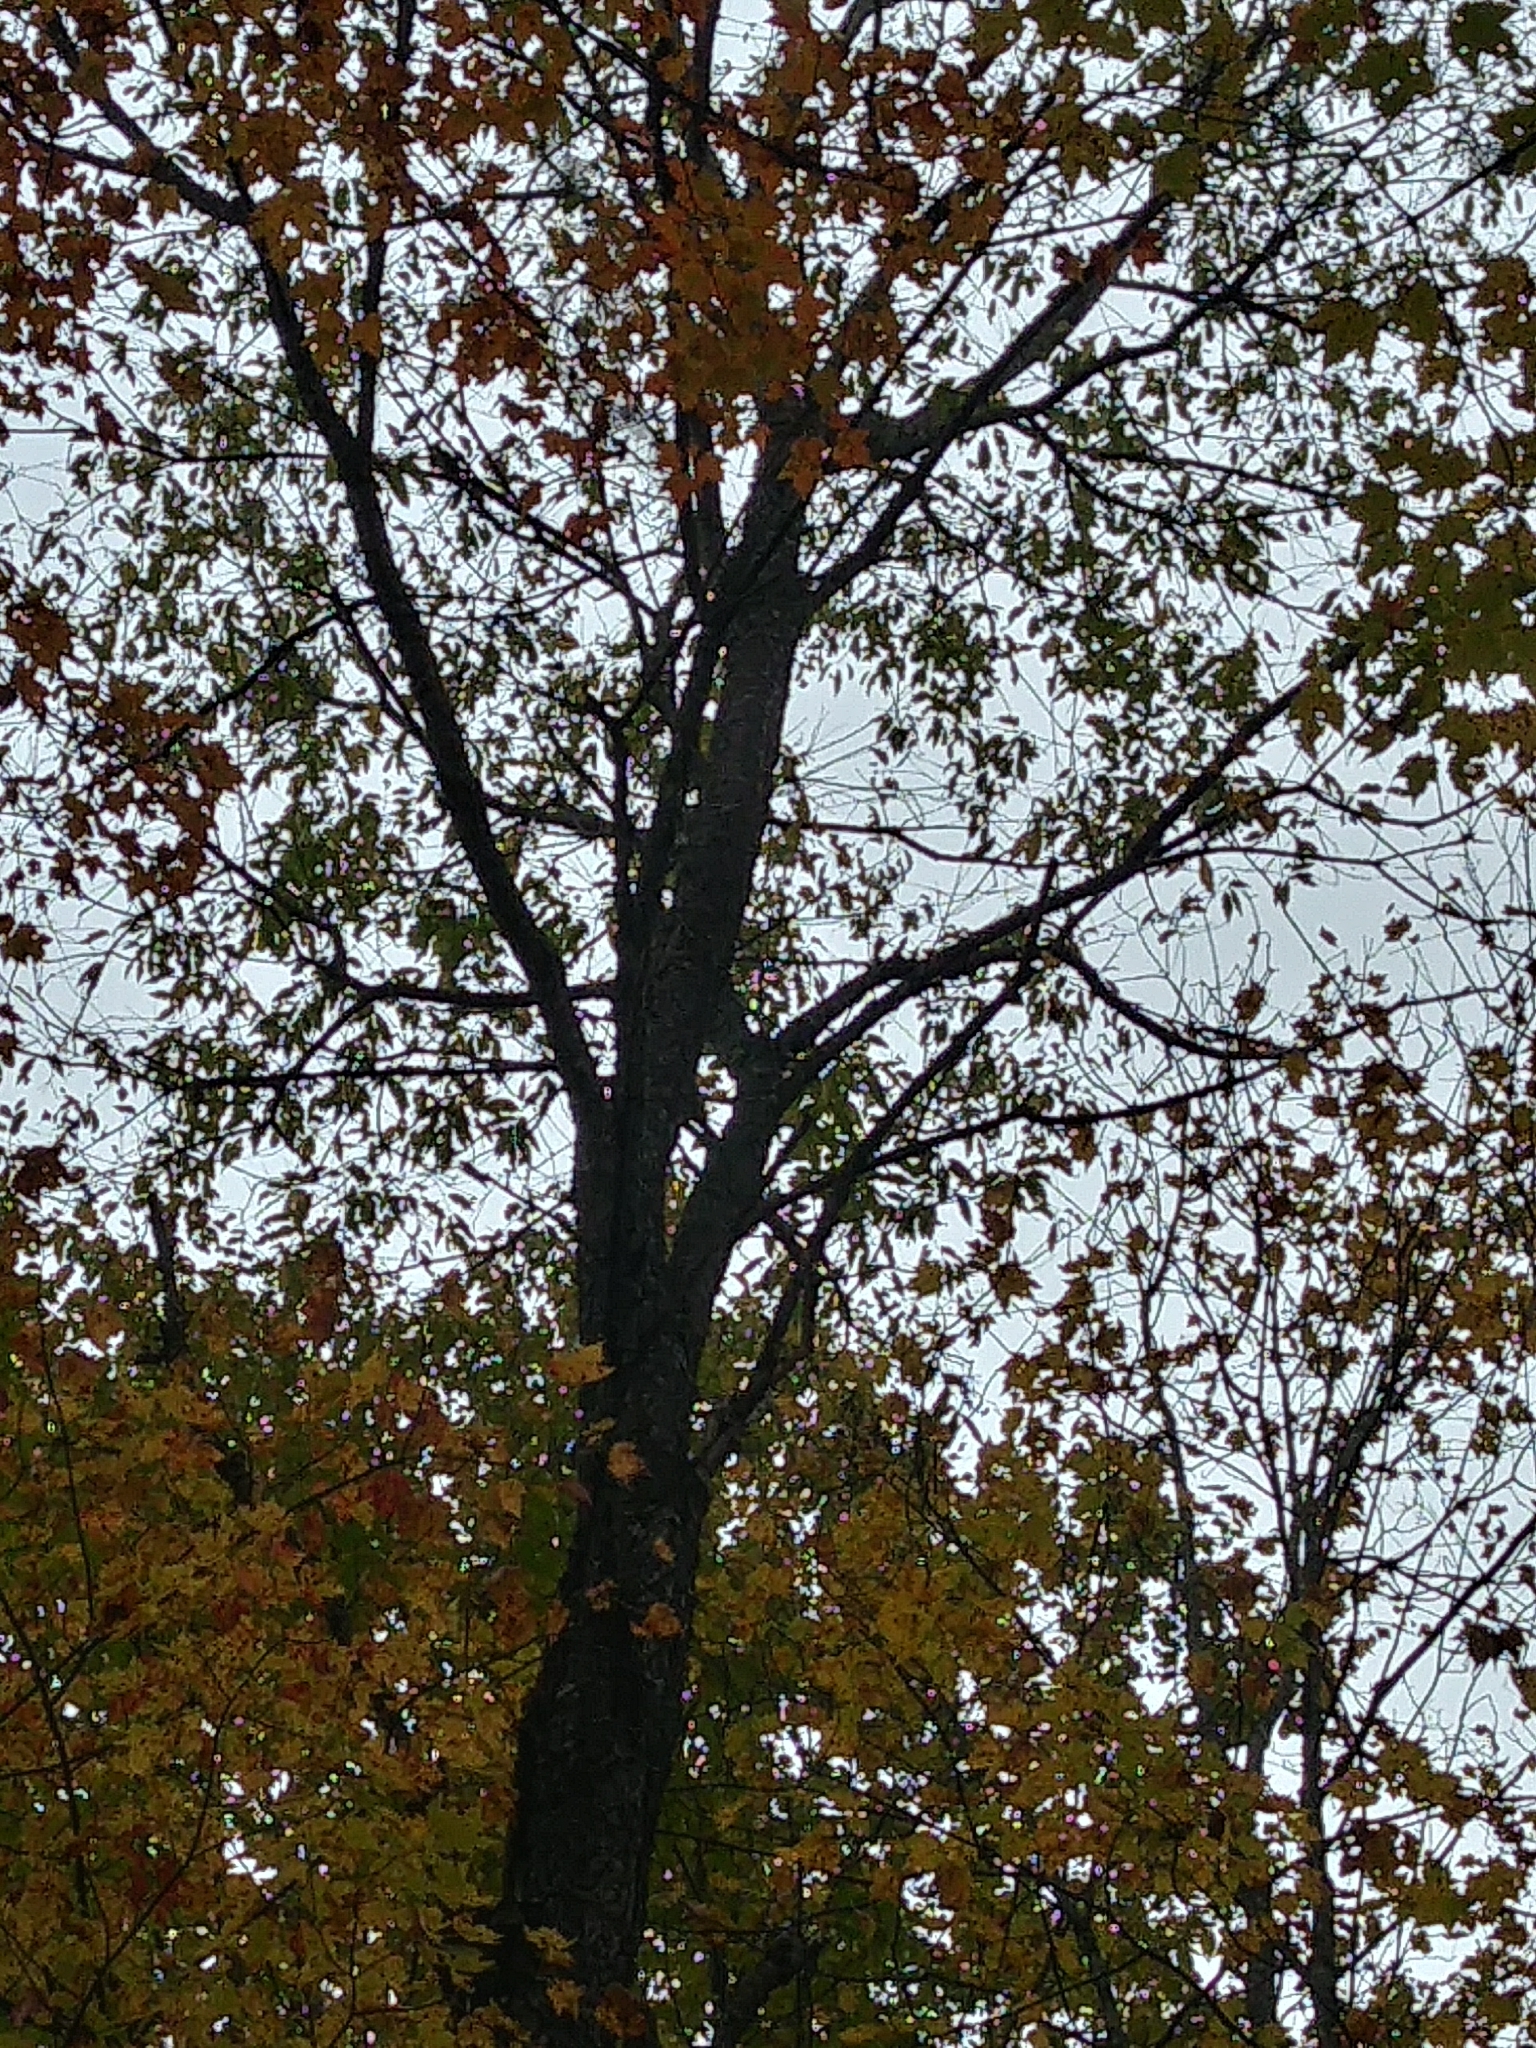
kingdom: Plantae
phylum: Tracheophyta
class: Magnoliopsida
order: Rosales
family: Rosaceae
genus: Prunus
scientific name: Prunus serotina
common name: Black cherry
